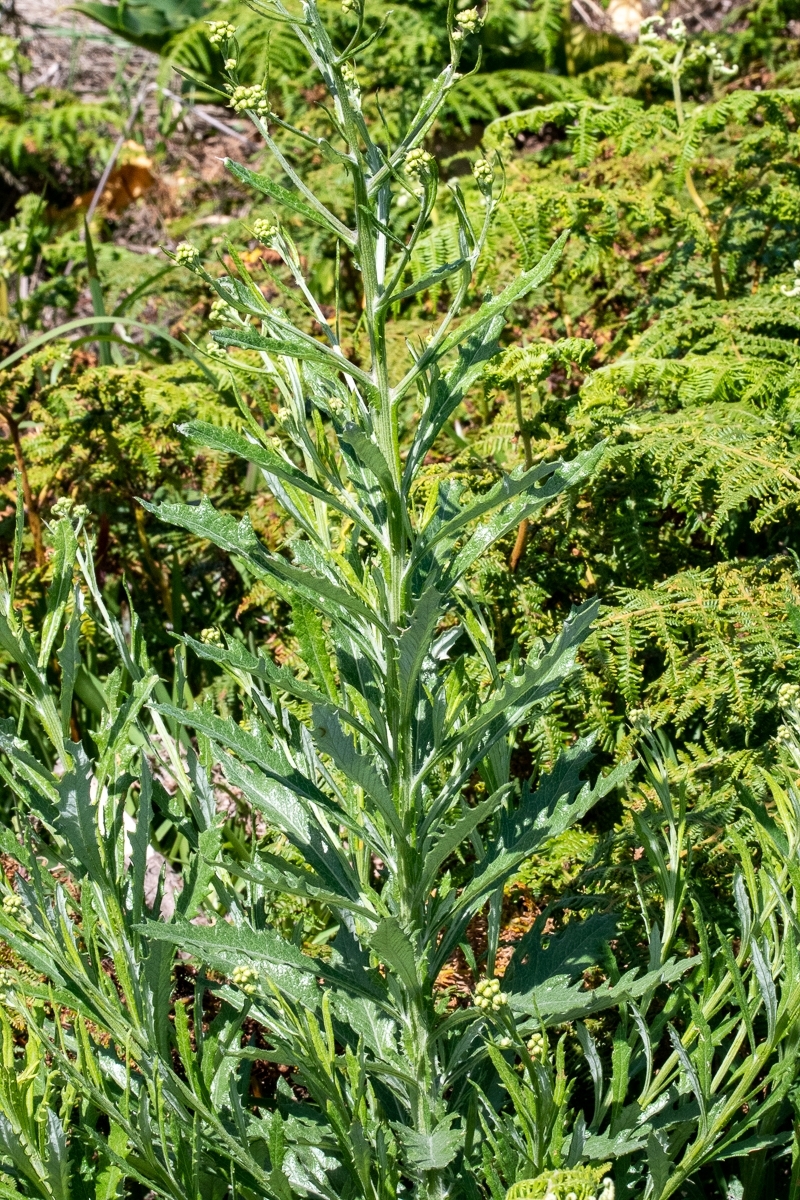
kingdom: Plantae
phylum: Tracheophyta
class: Magnoliopsida
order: Asterales
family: Asteraceae
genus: Senecio
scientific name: Senecio pterophorus
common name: Shoddy ragwort
